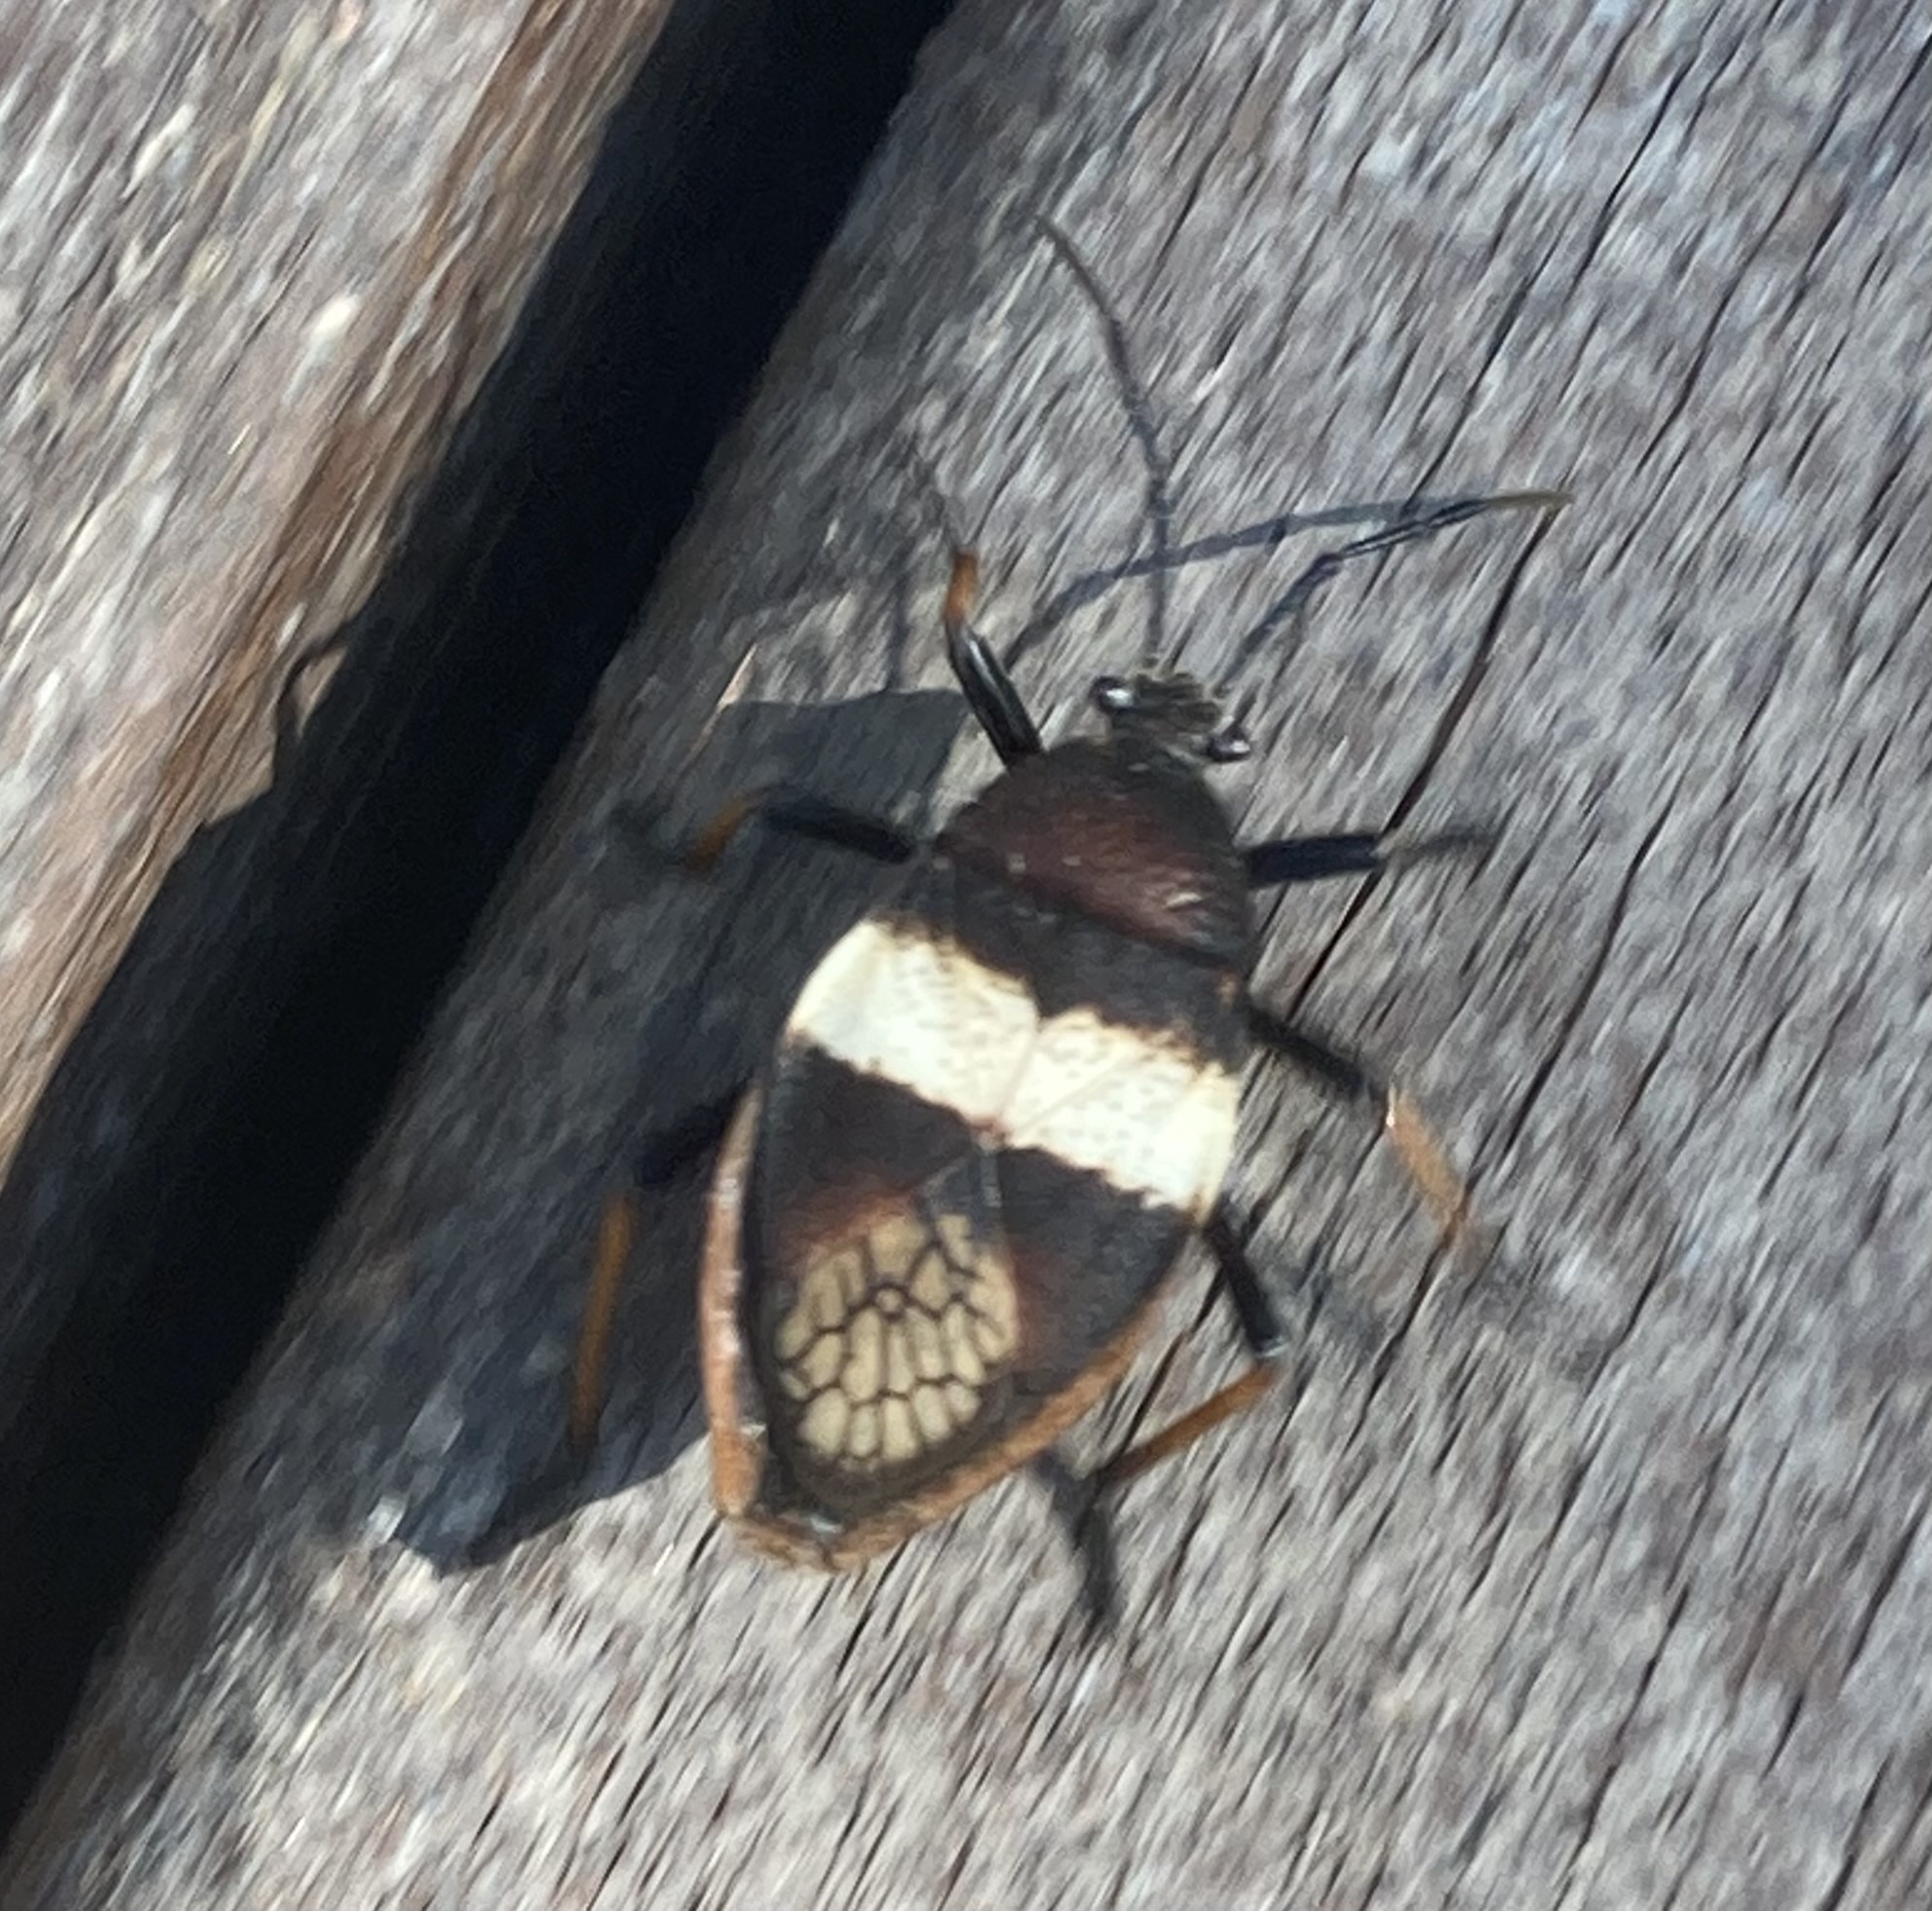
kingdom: Animalia
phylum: Arthropoda
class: Insecta
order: Hemiptera
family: Largidae
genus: Largus
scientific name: Largus balteatus
